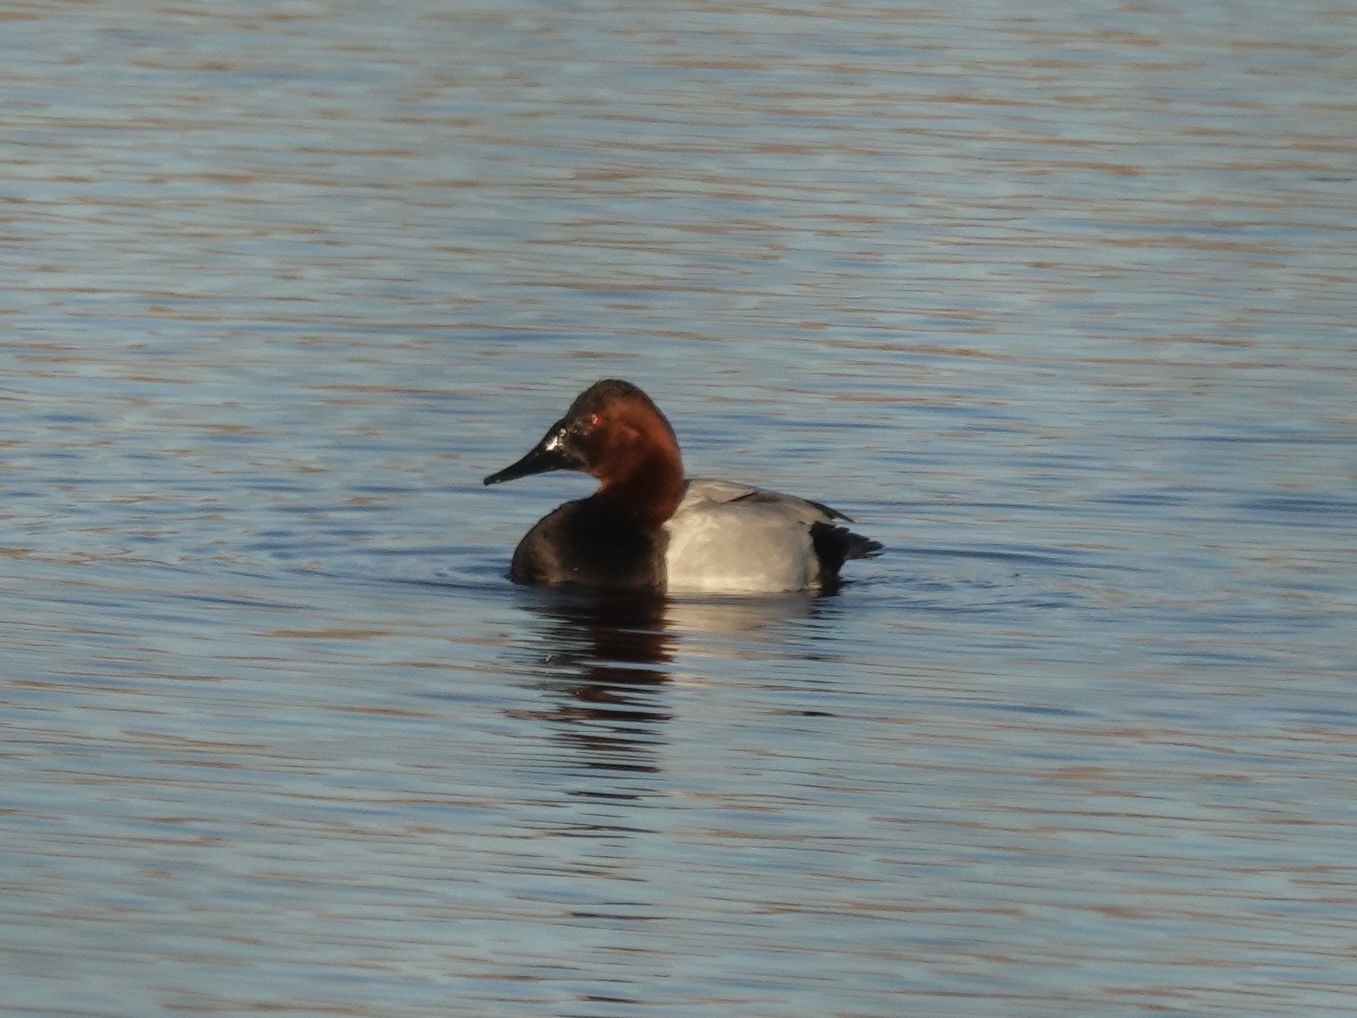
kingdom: Animalia
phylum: Chordata
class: Aves
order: Anseriformes
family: Anatidae
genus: Aythya
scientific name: Aythya valisineria
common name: Canvasback
